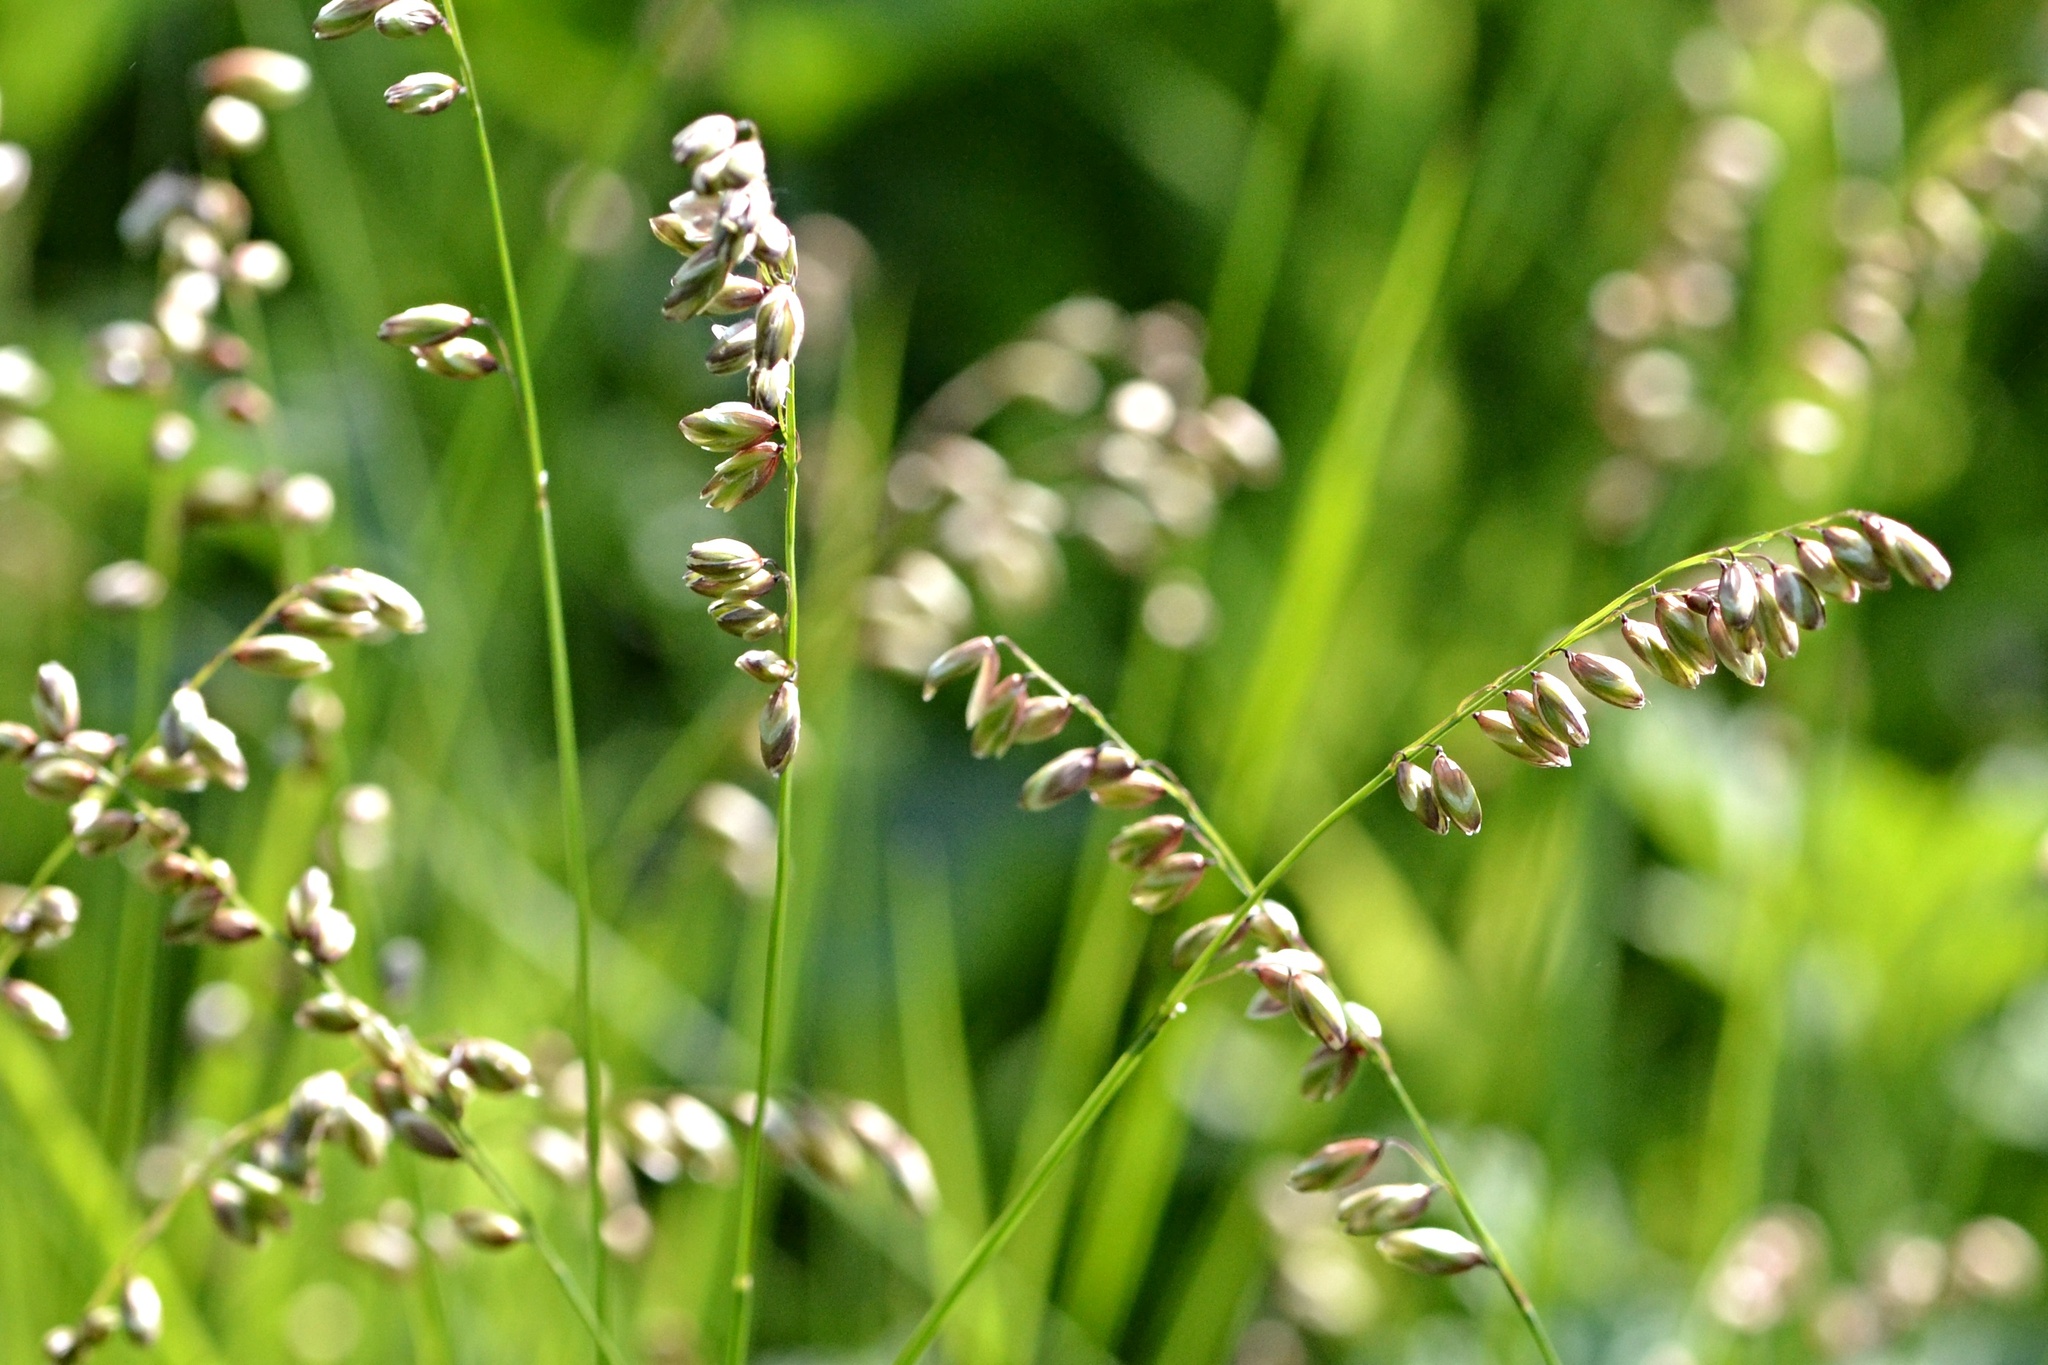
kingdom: Plantae
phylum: Tracheophyta
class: Liliopsida
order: Poales
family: Poaceae
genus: Melica
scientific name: Melica nutans
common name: Mountain melick
